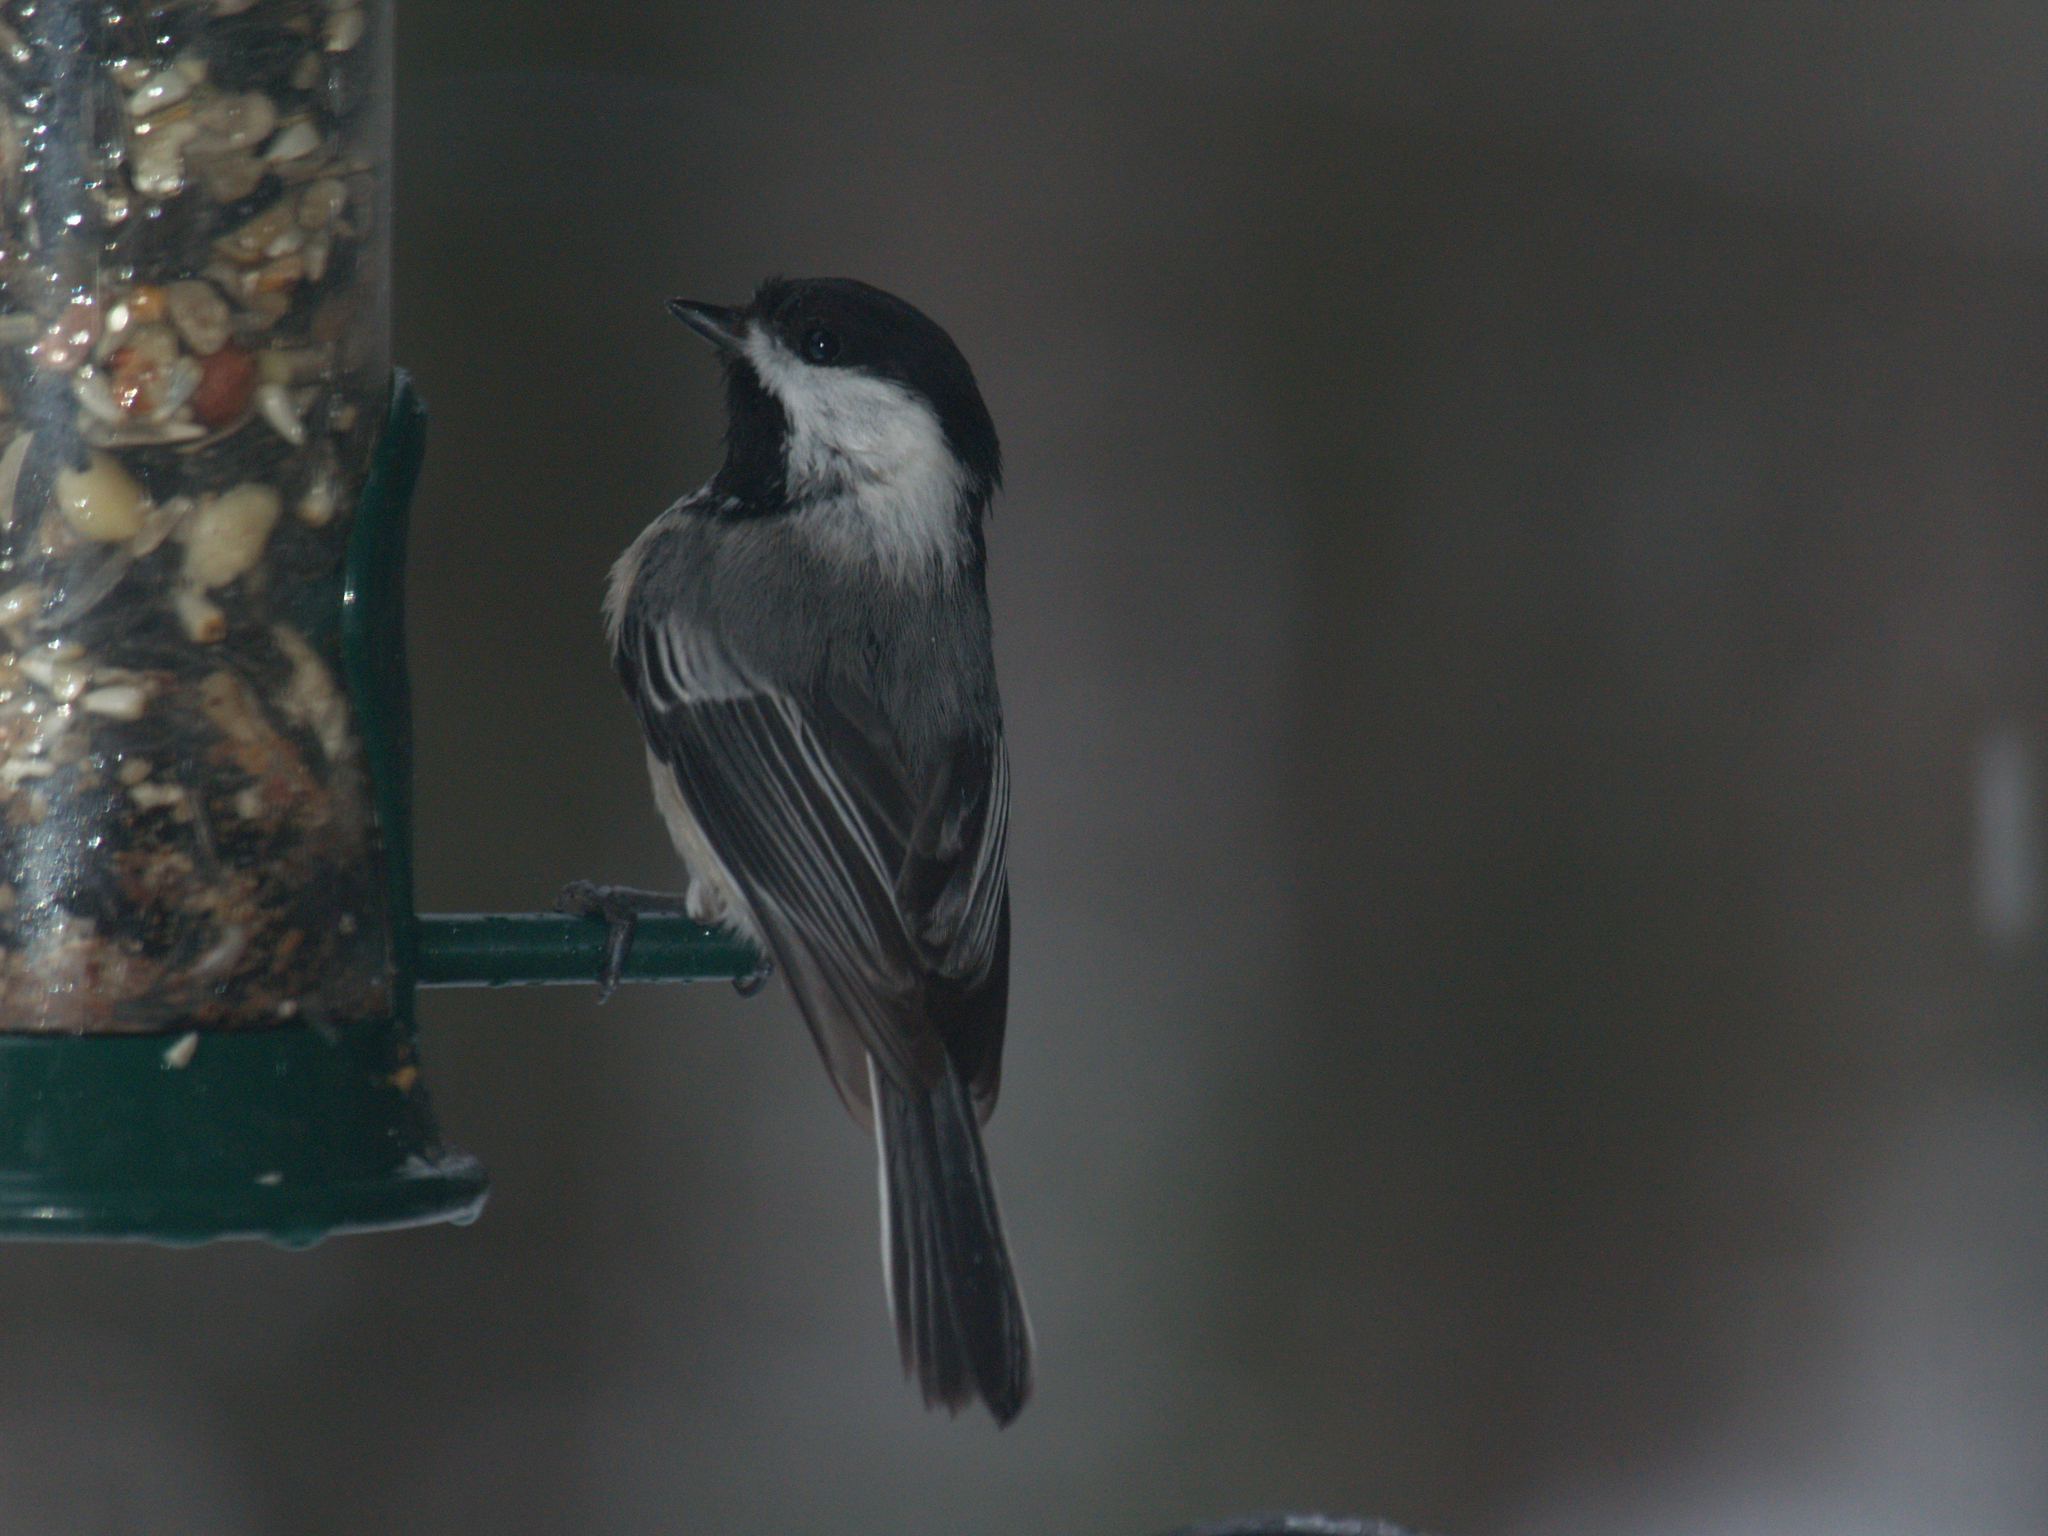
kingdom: Animalia
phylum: Chordata
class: Aves
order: Passeriformes
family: Paridae
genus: Poecile
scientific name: Poecile atricapillus
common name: Black-capped chickadee
